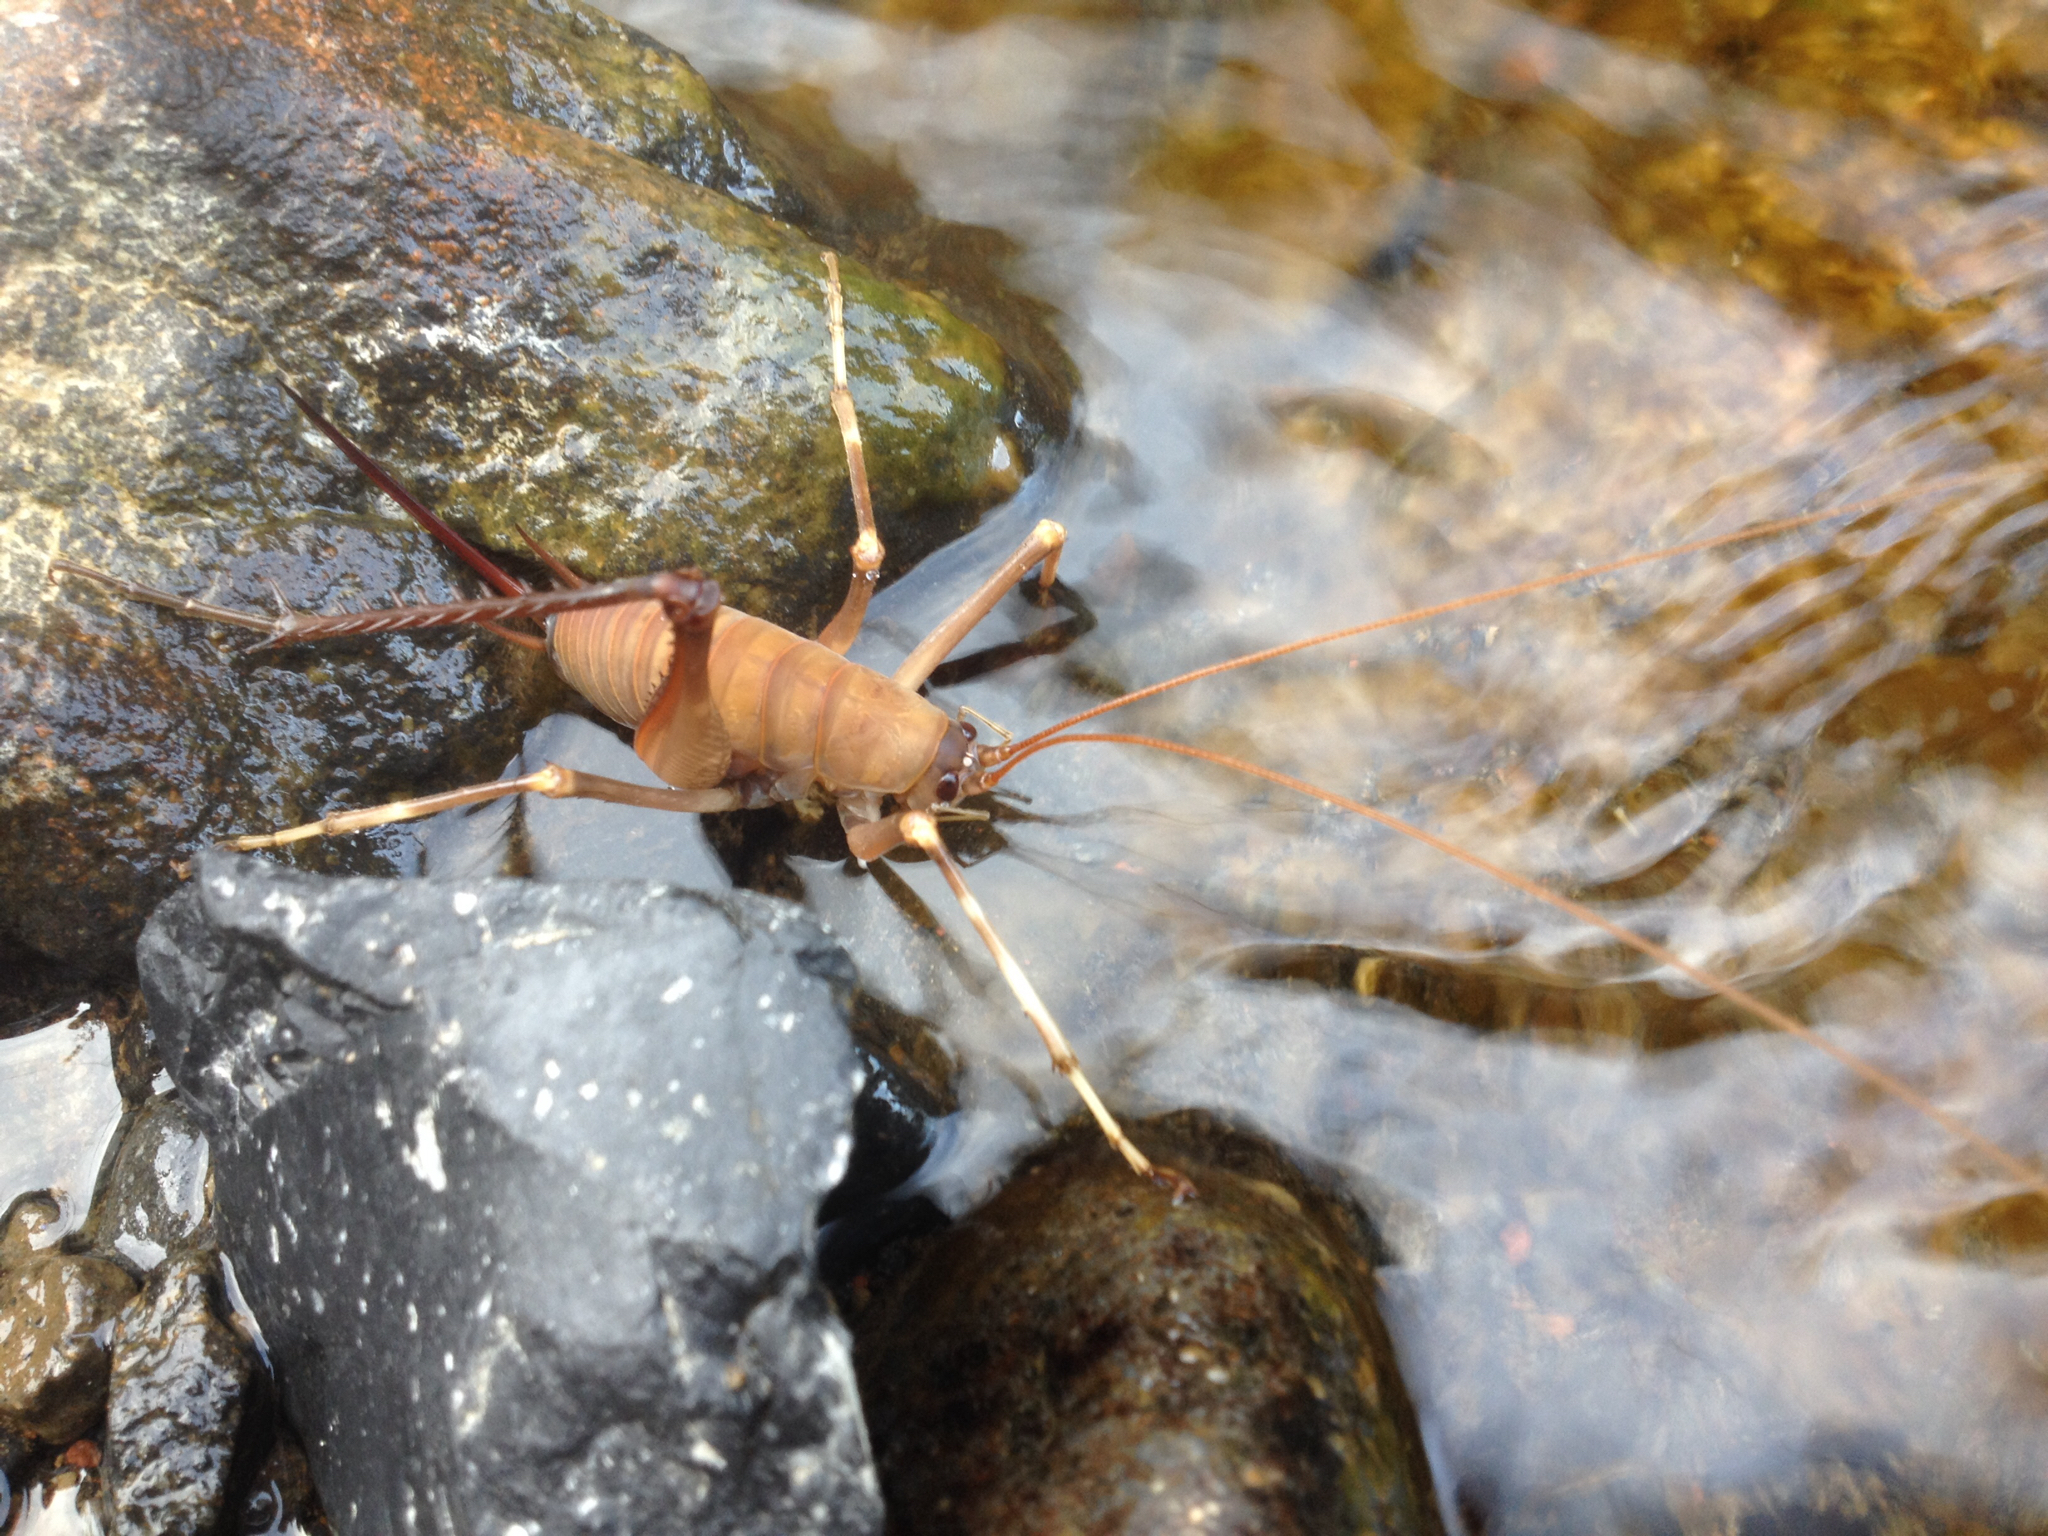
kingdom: Animalia
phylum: Arthropoda
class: Insecta
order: Orthoptera
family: Rhaphidophoridae
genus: Pachyrhamma
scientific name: Pachyrhamma longipes
